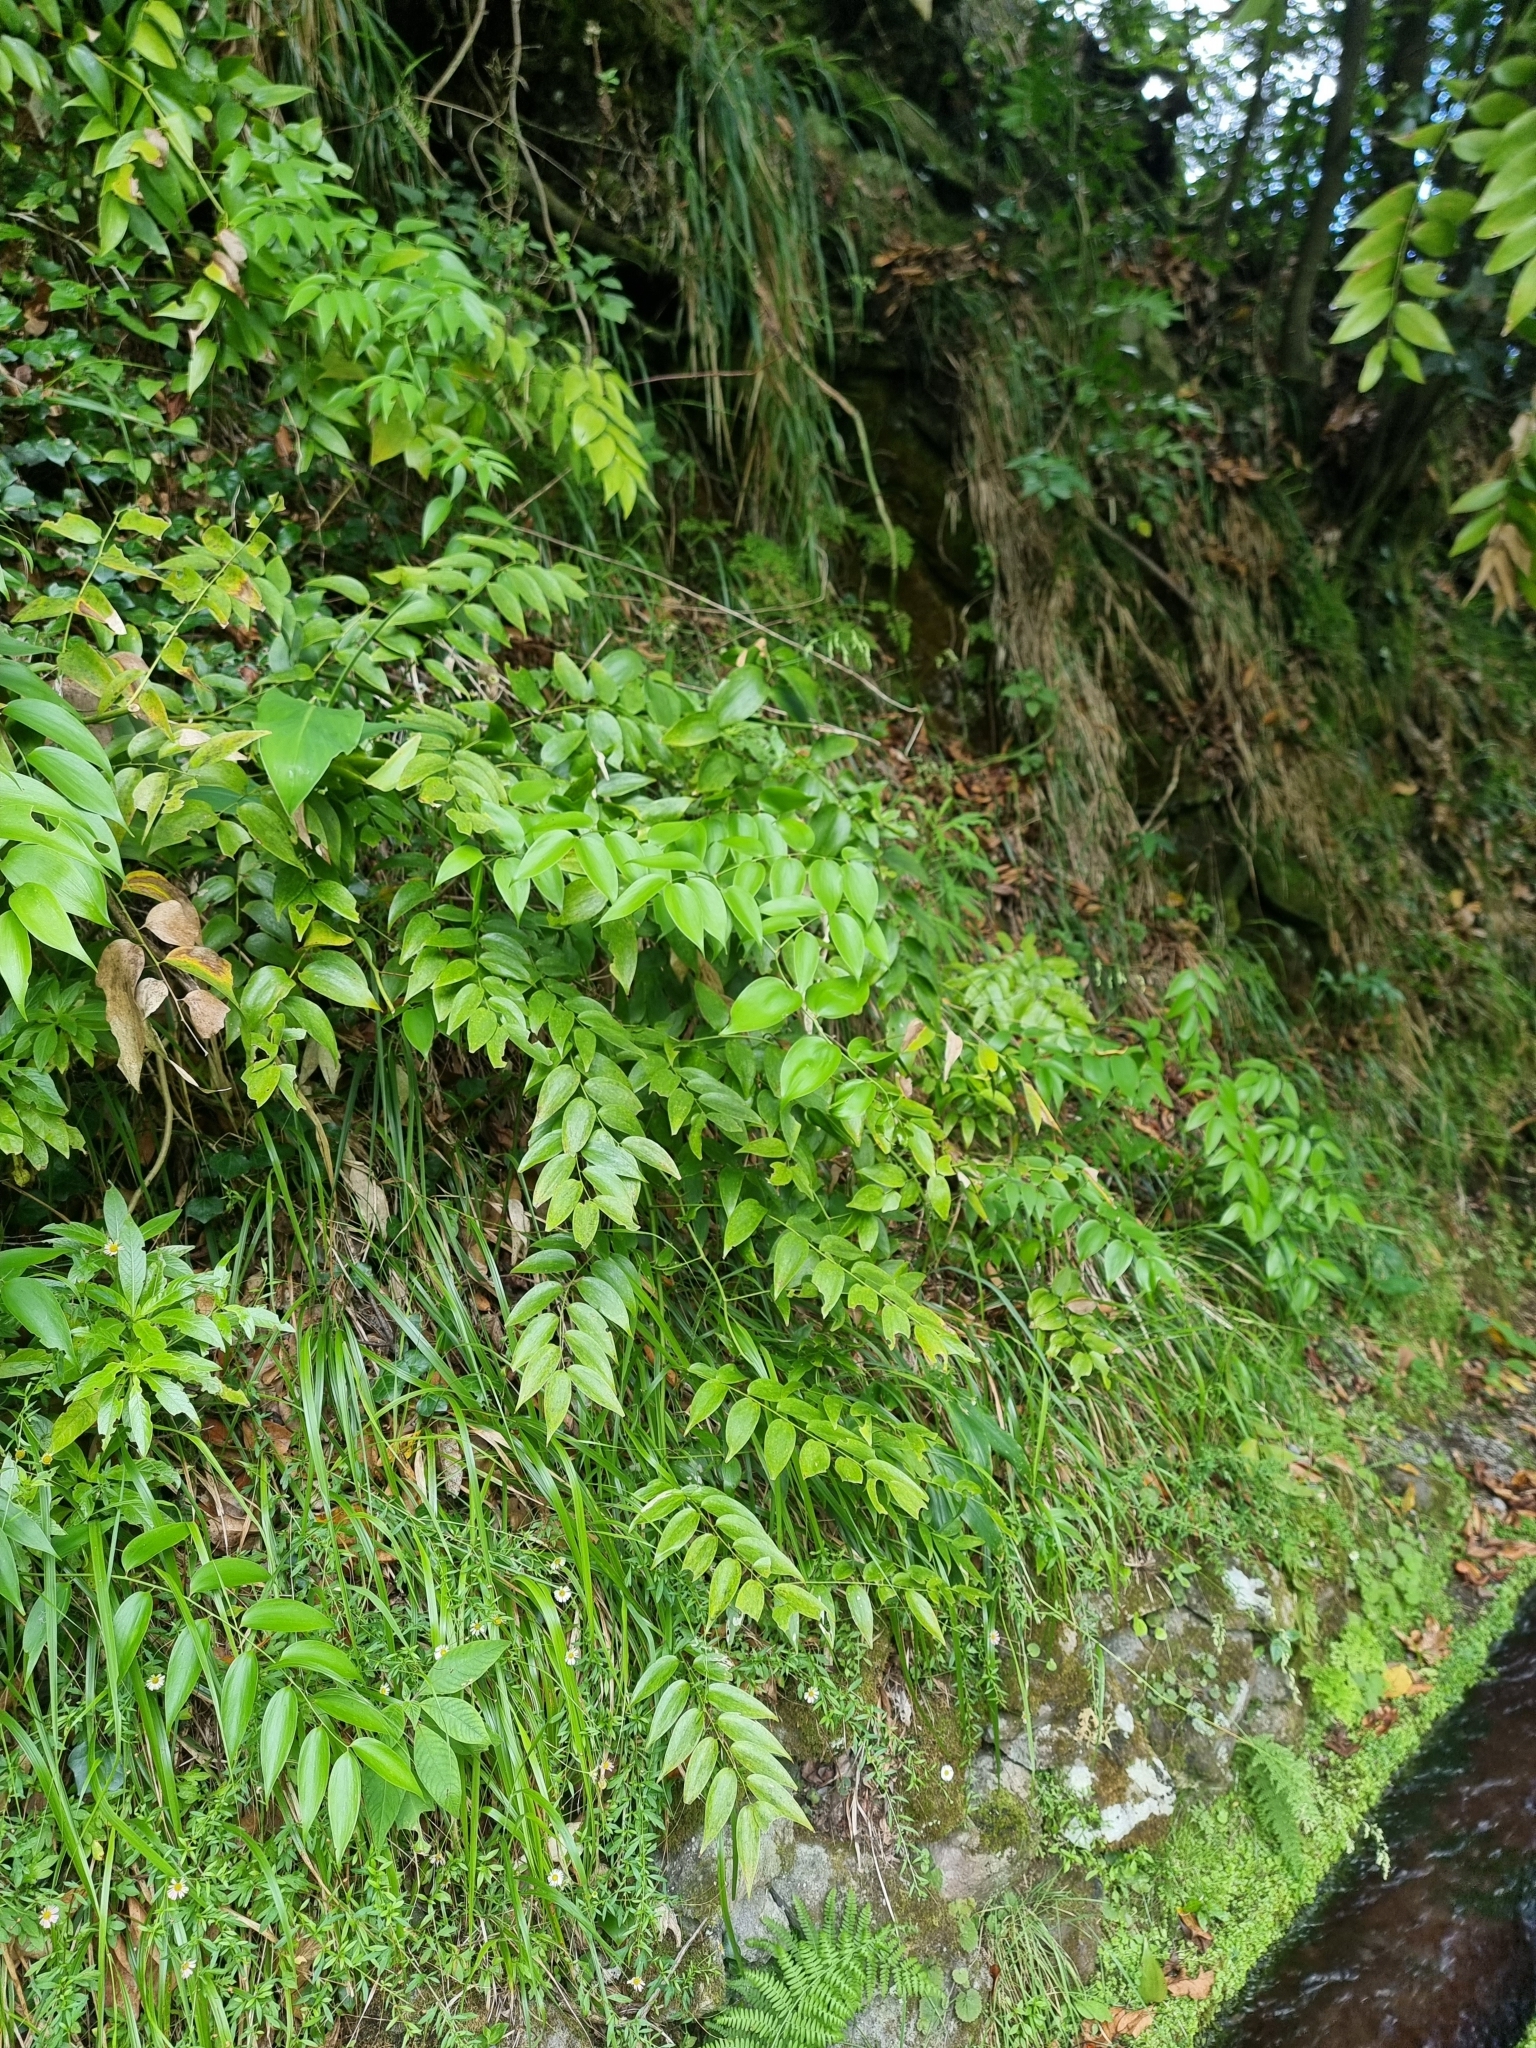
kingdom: Plantae
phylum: Tracheophyta
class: Liliopsida
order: Asparagales
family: Asparagaceae
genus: Semele
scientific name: Semele androgyna
